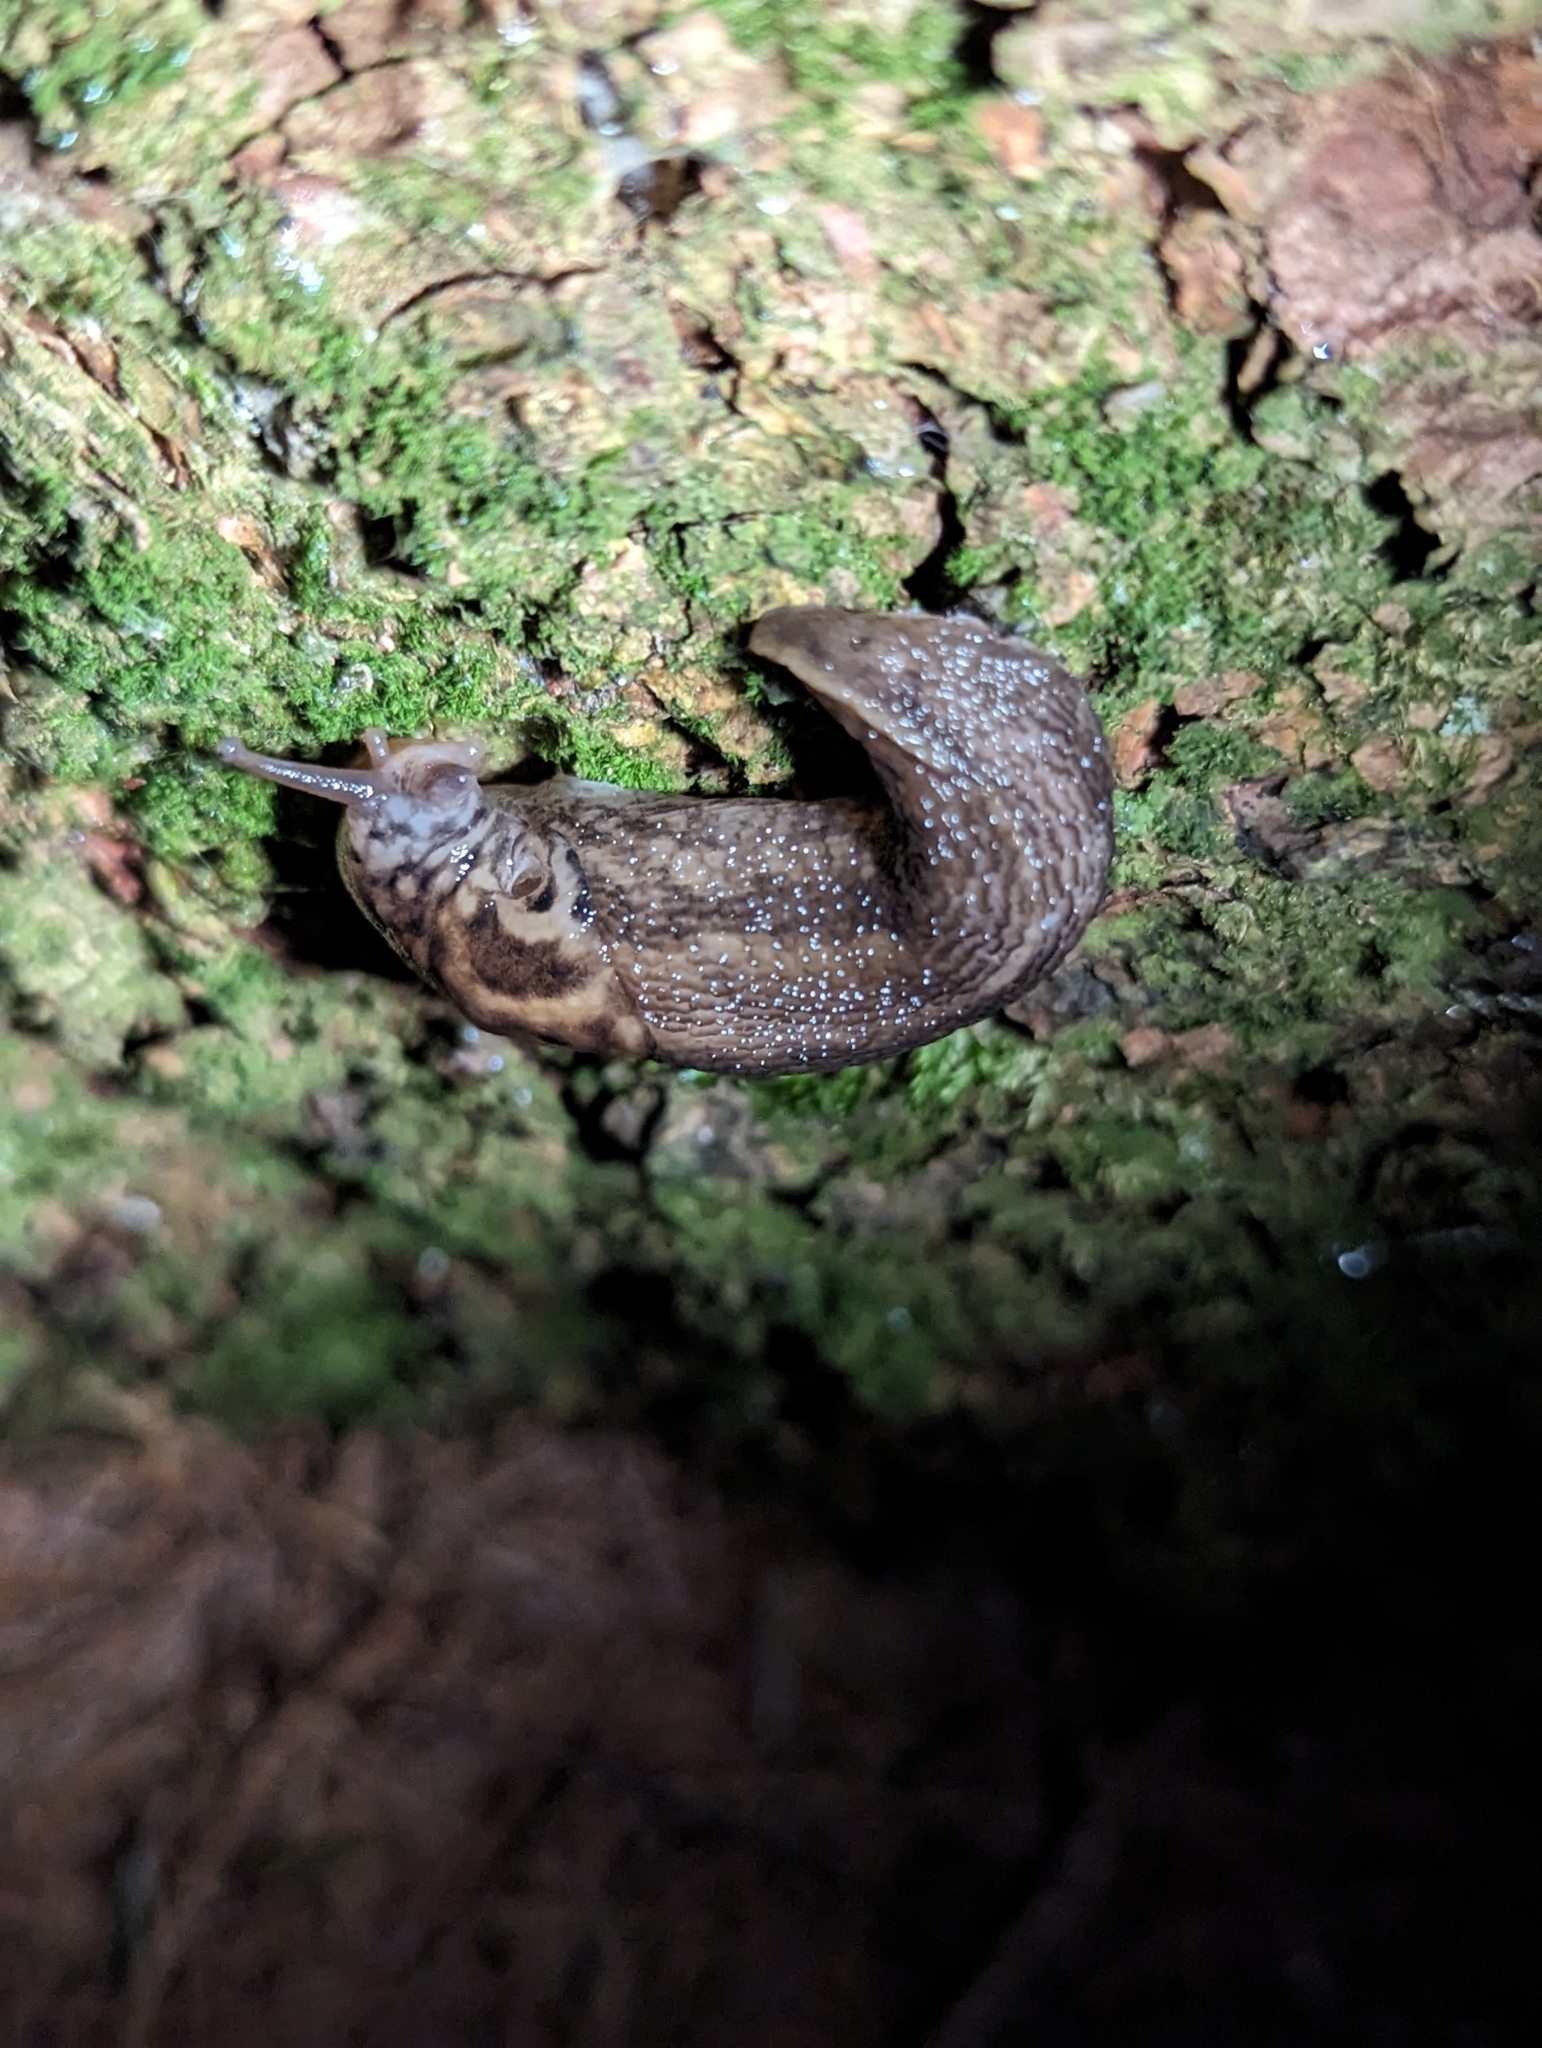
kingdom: Animalia
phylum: Mollusca
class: Gastropoda
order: Stylommatophora
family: Limacidae
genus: Limax
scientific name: Limax maximus
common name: Great grey slug
